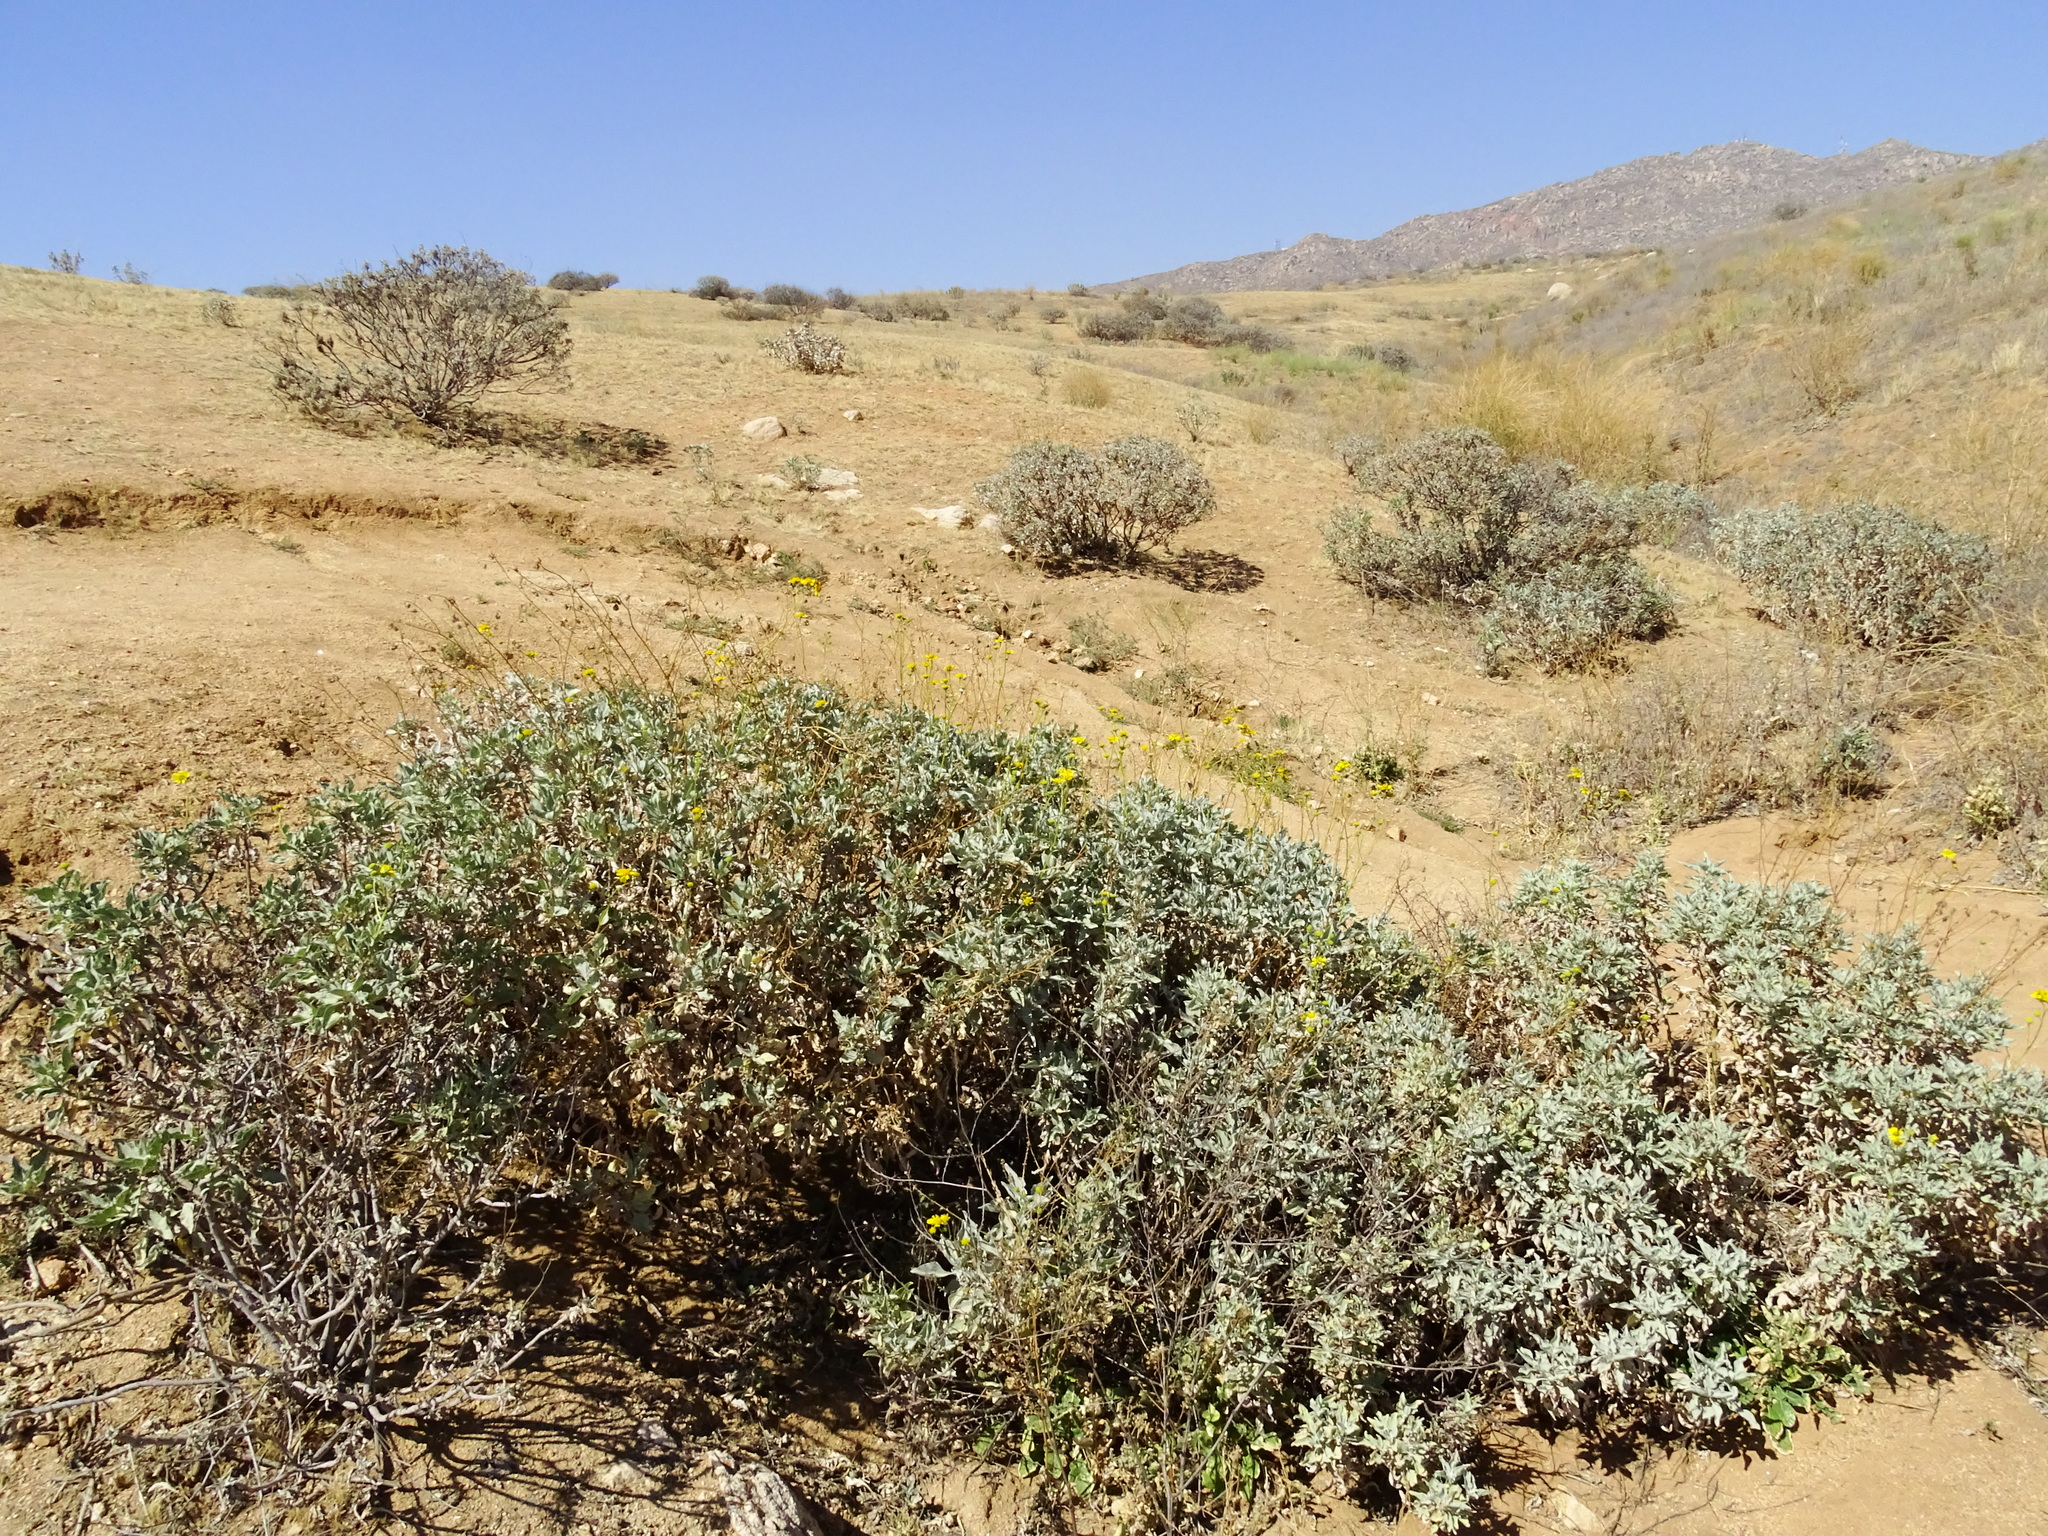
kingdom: Plantae
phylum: Tracheophyta
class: Magnoliopsida
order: Asterales
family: Asteraceae
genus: Encelia
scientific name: Encelia farinosa
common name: Brittlebush
